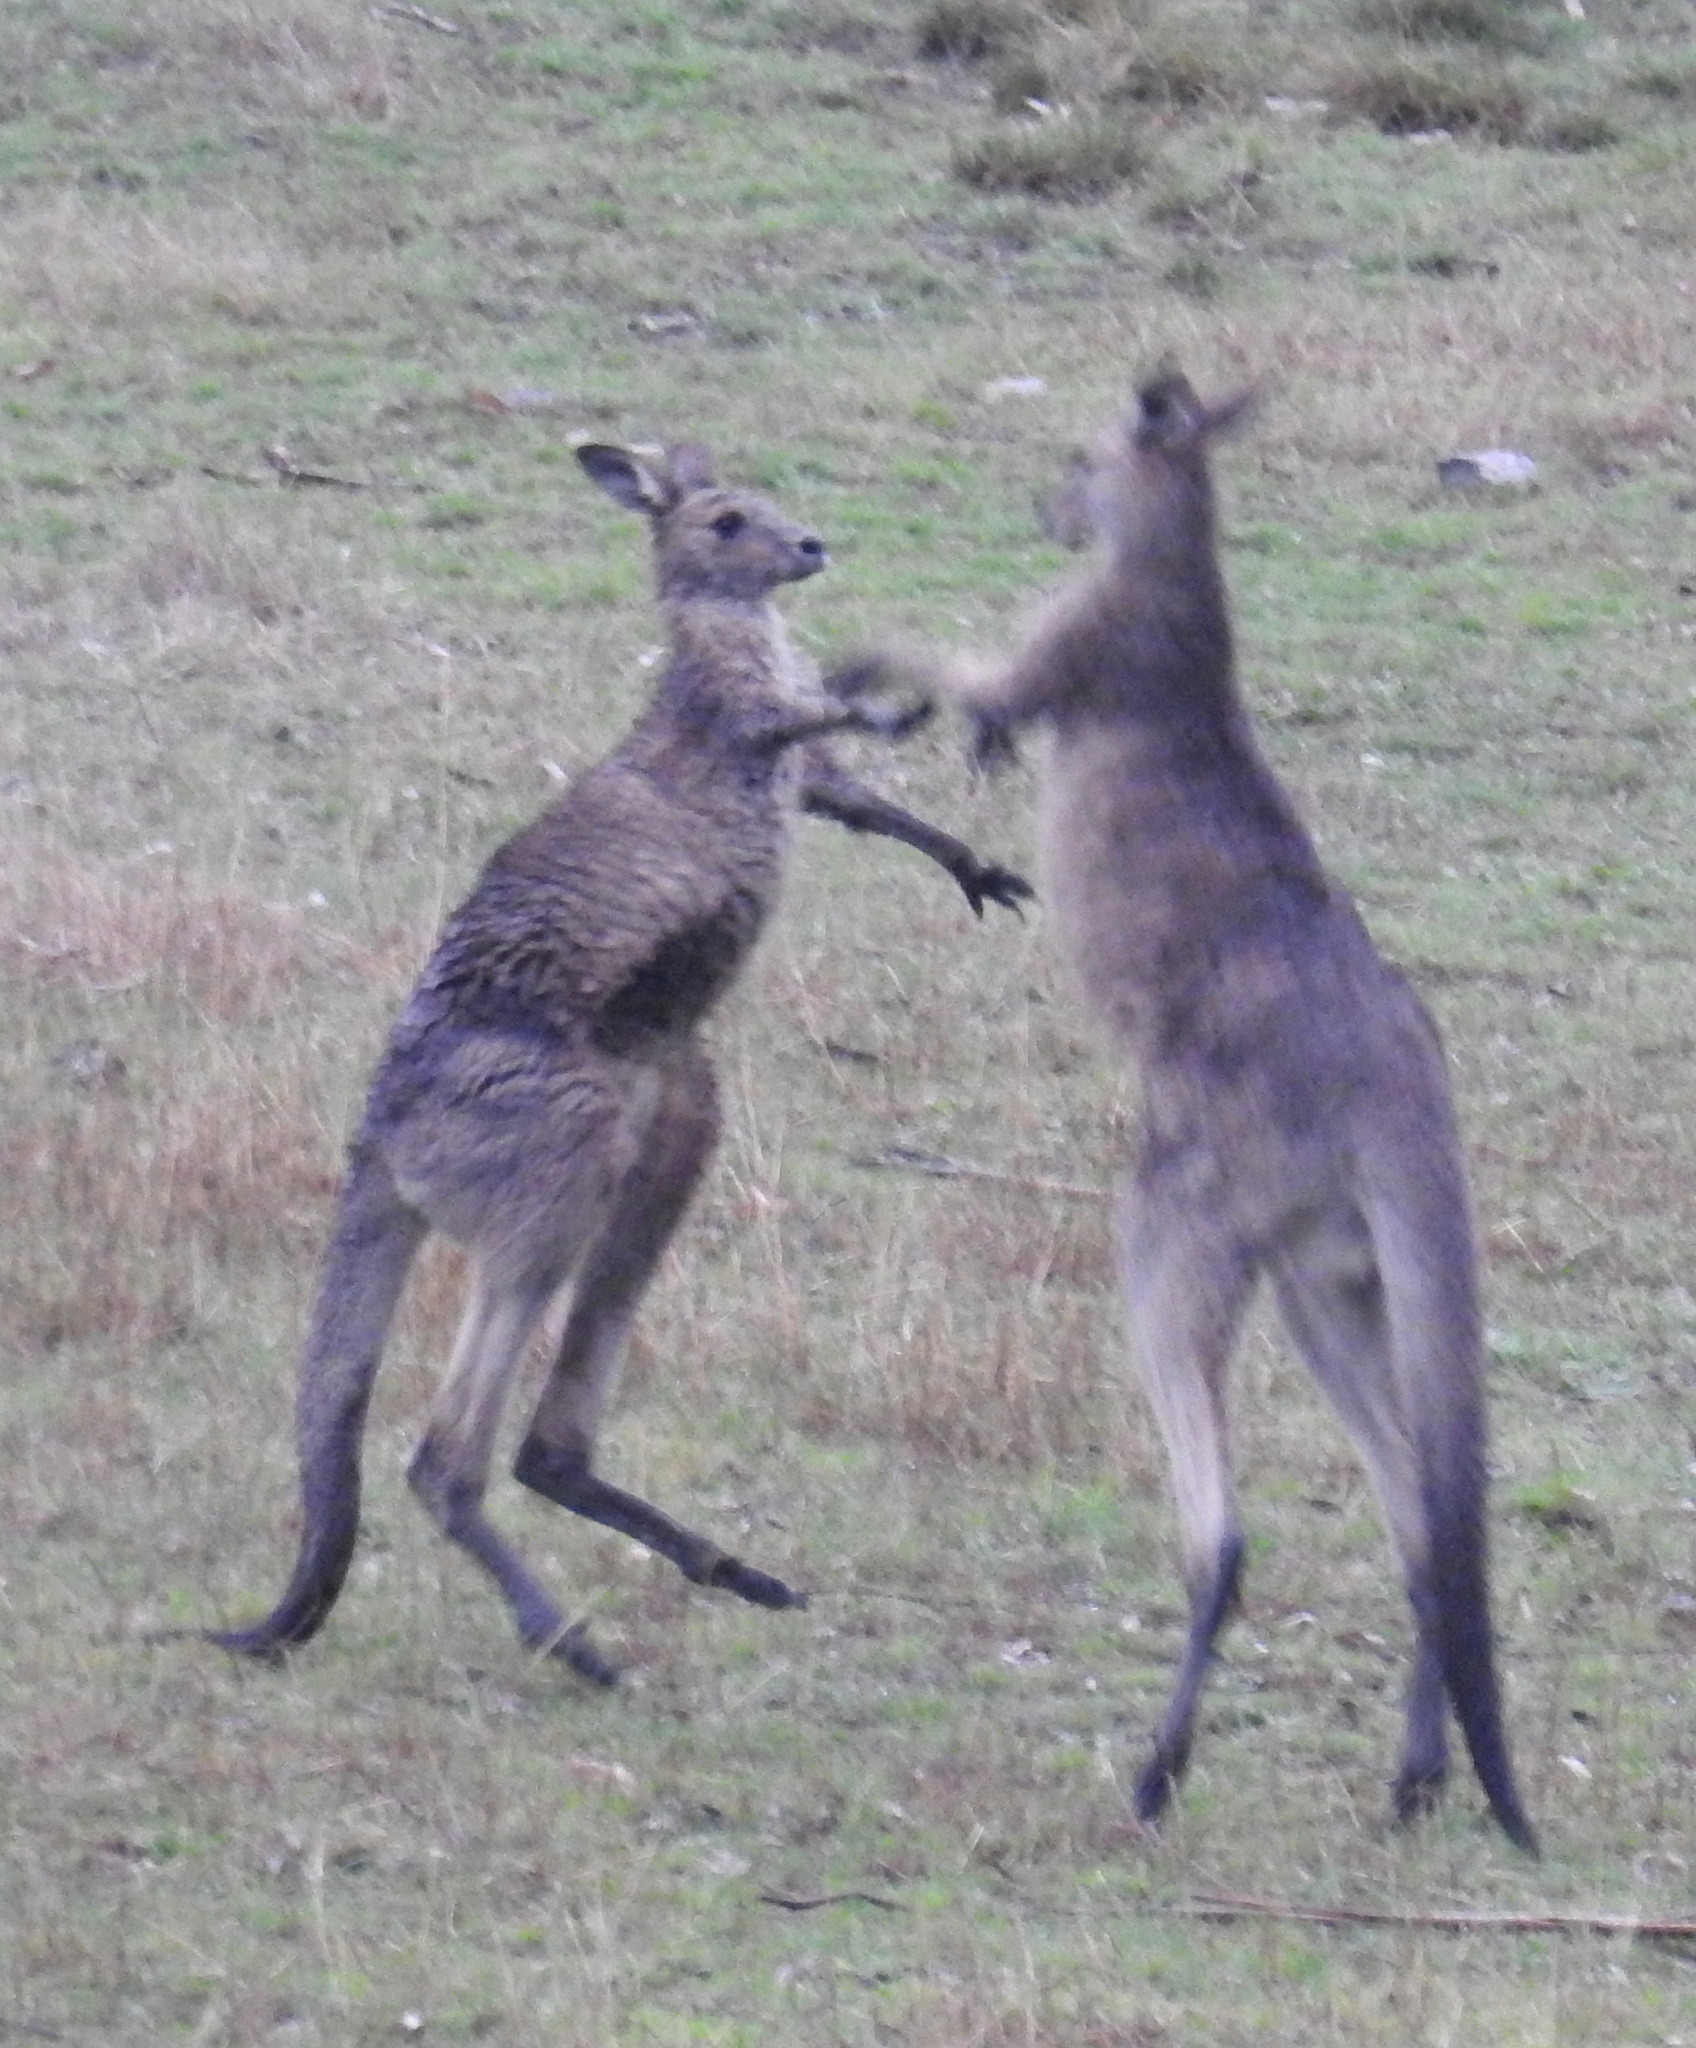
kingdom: Animalia
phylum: Chordata
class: Mammalia
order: Diprotodontia
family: Macropodidae
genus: Macropus
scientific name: Macropus giganteus
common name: Eastern grey kangaroo
